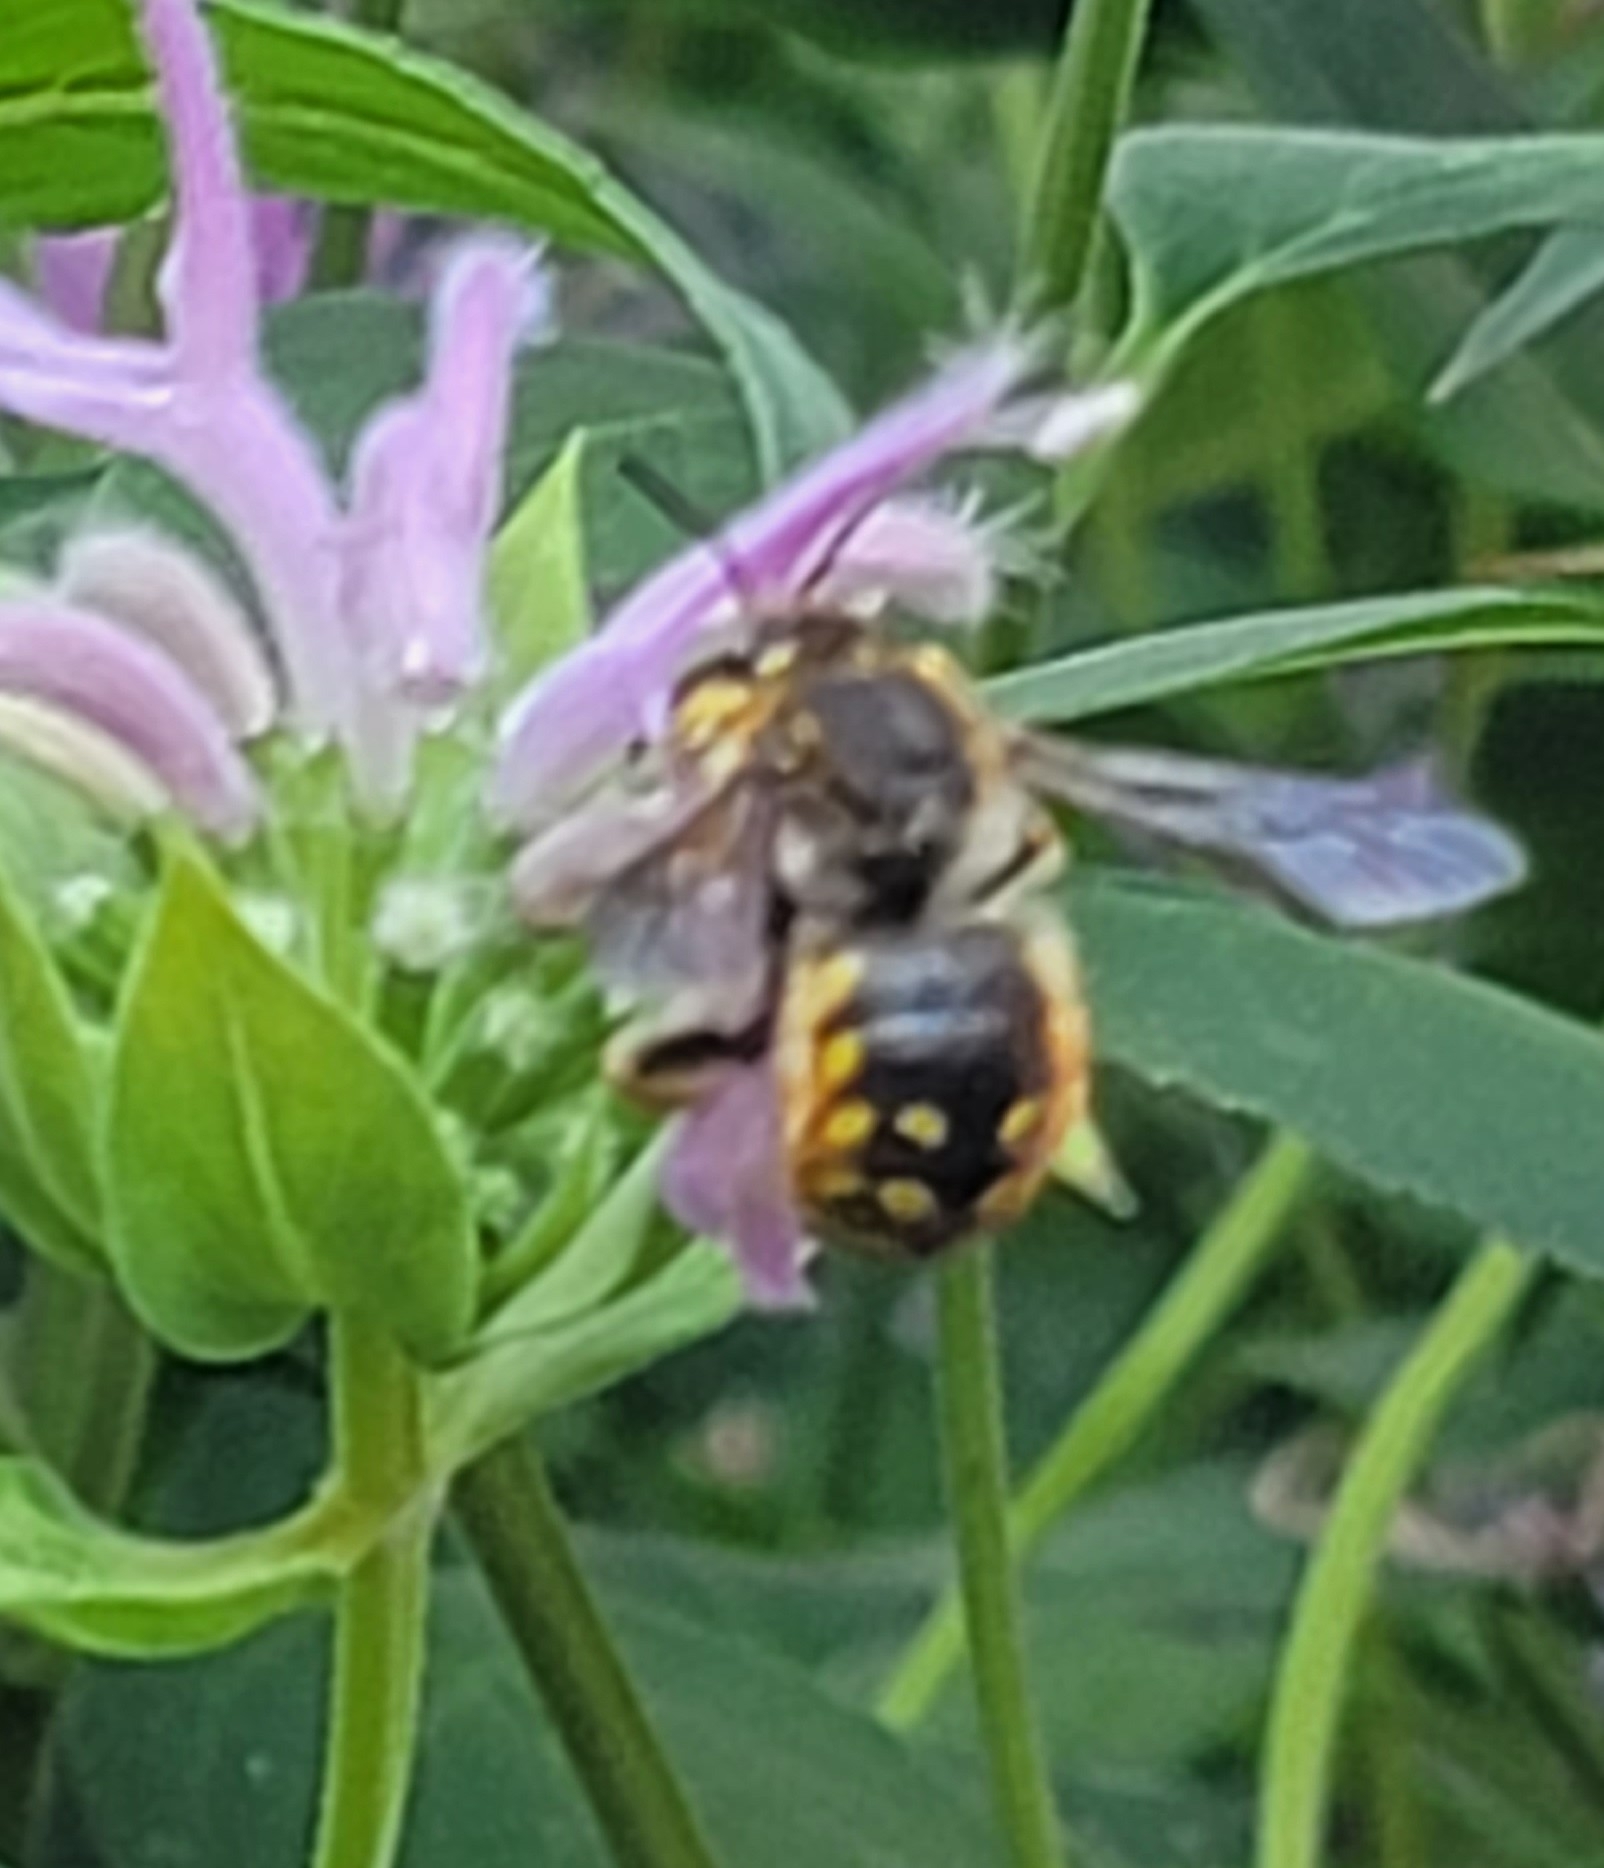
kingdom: Animalia
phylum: Arthropoda
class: Insecta
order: Hymenoptera
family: Megachilidae
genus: Anthidium
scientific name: Anthidium manicatum
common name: Wool carder bee
